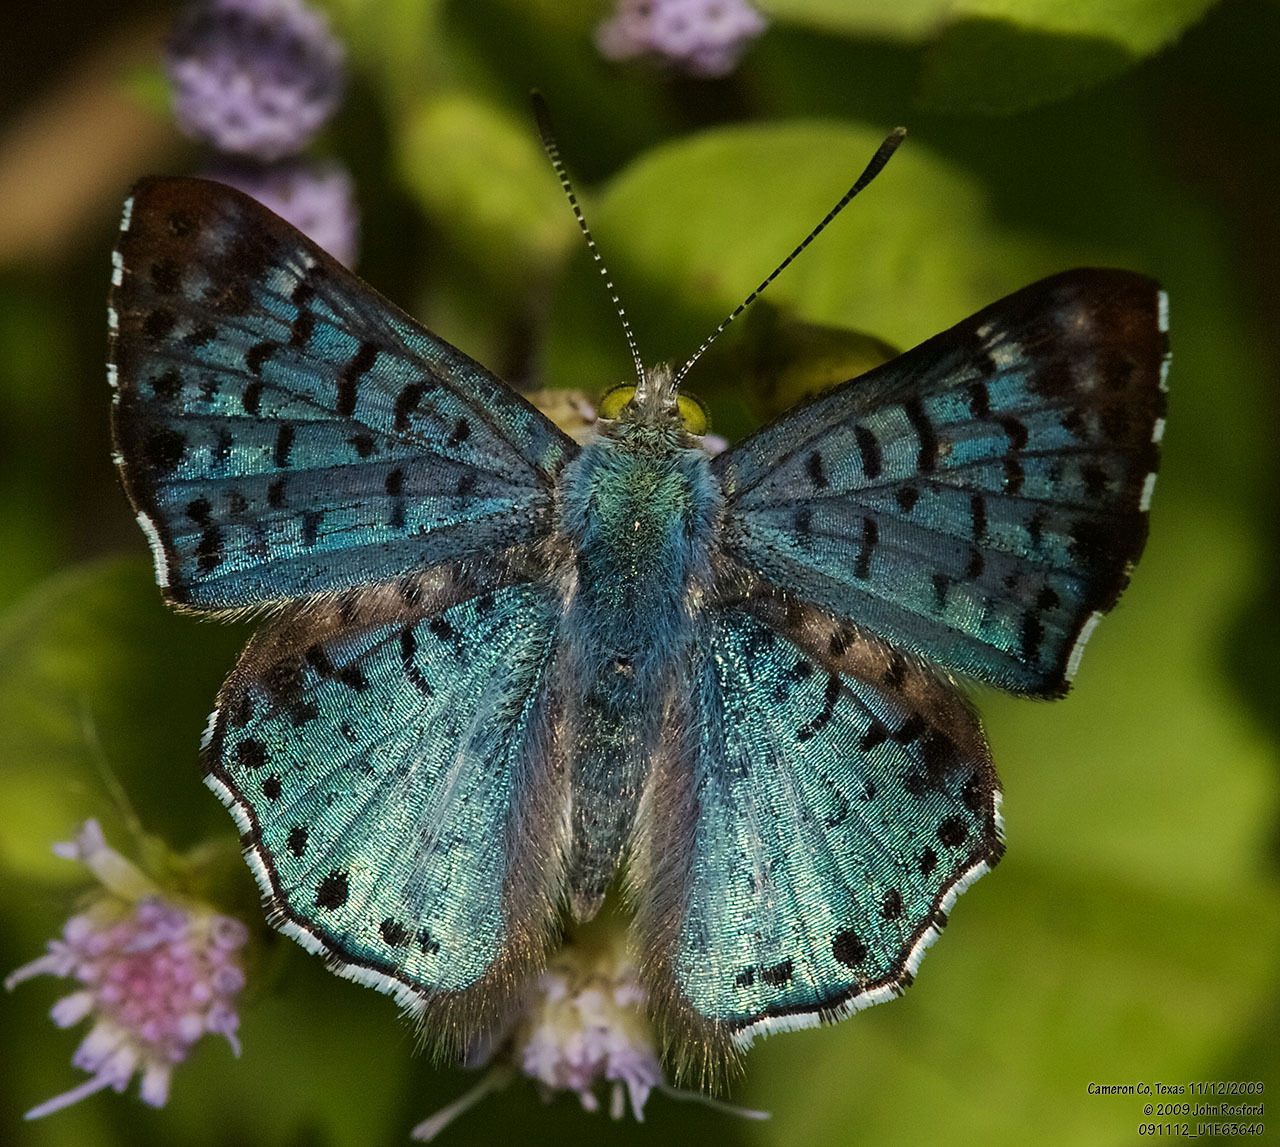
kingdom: Animalia
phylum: Arthropoda
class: Insecta
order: Lepidoptera
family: Riodinidae
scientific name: Riodinidae
